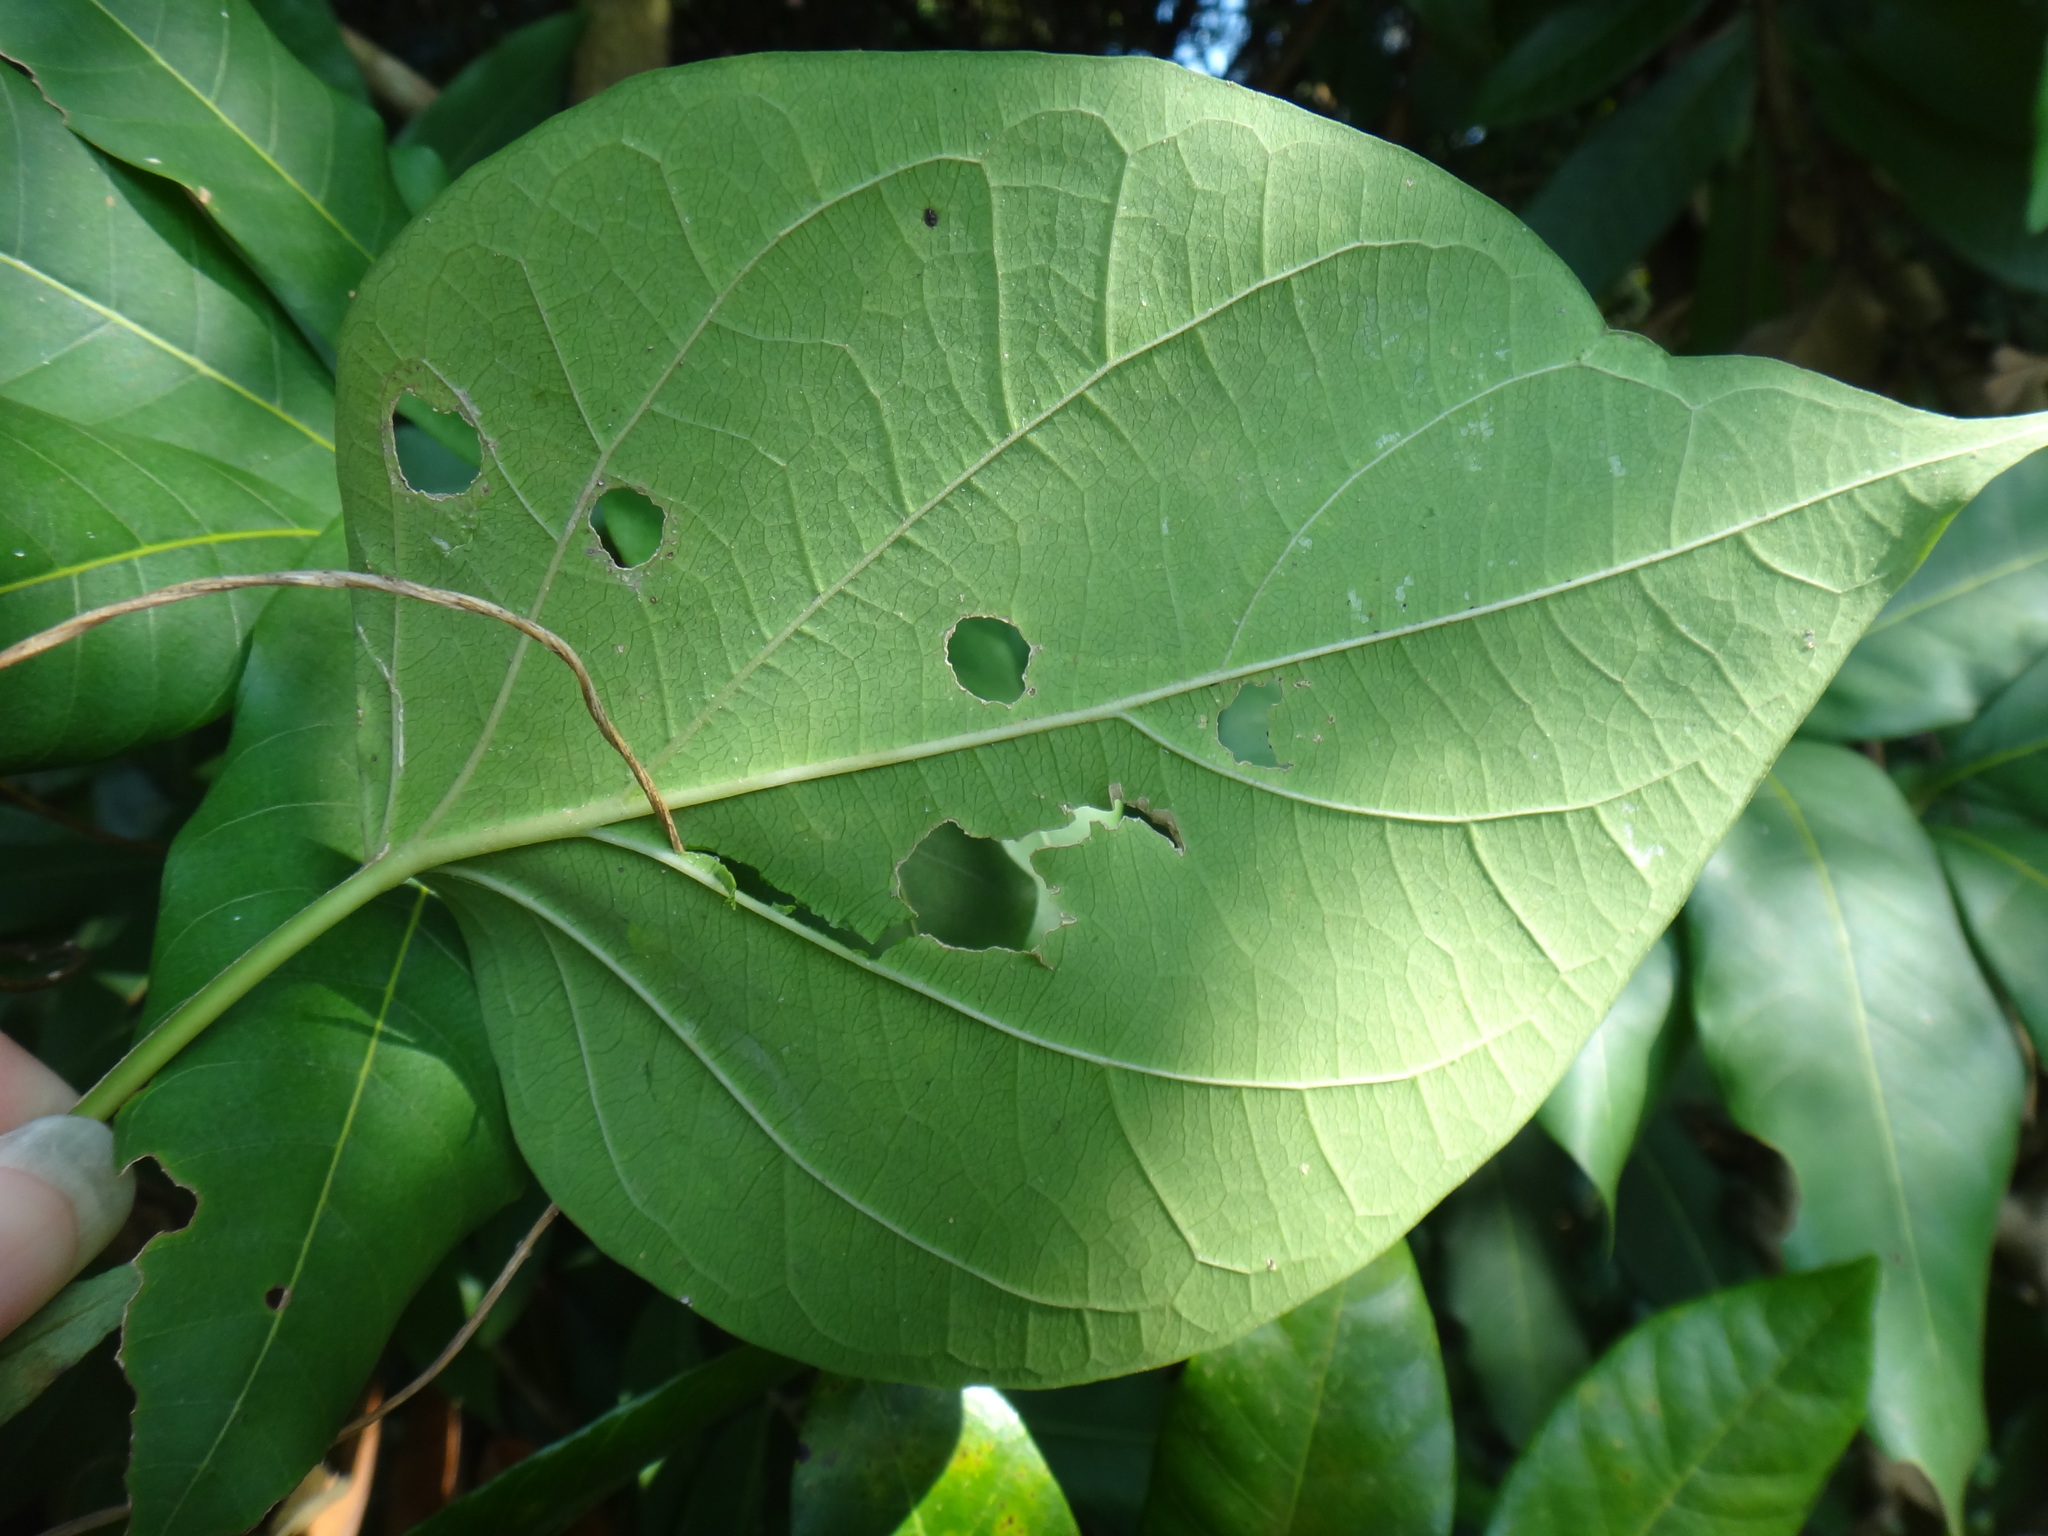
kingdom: Plantae
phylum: Tracheophyta
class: Magnoliopsida
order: Gentianales
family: Apocynaceae
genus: Stephanotis
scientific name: Stephanotis volubilis
